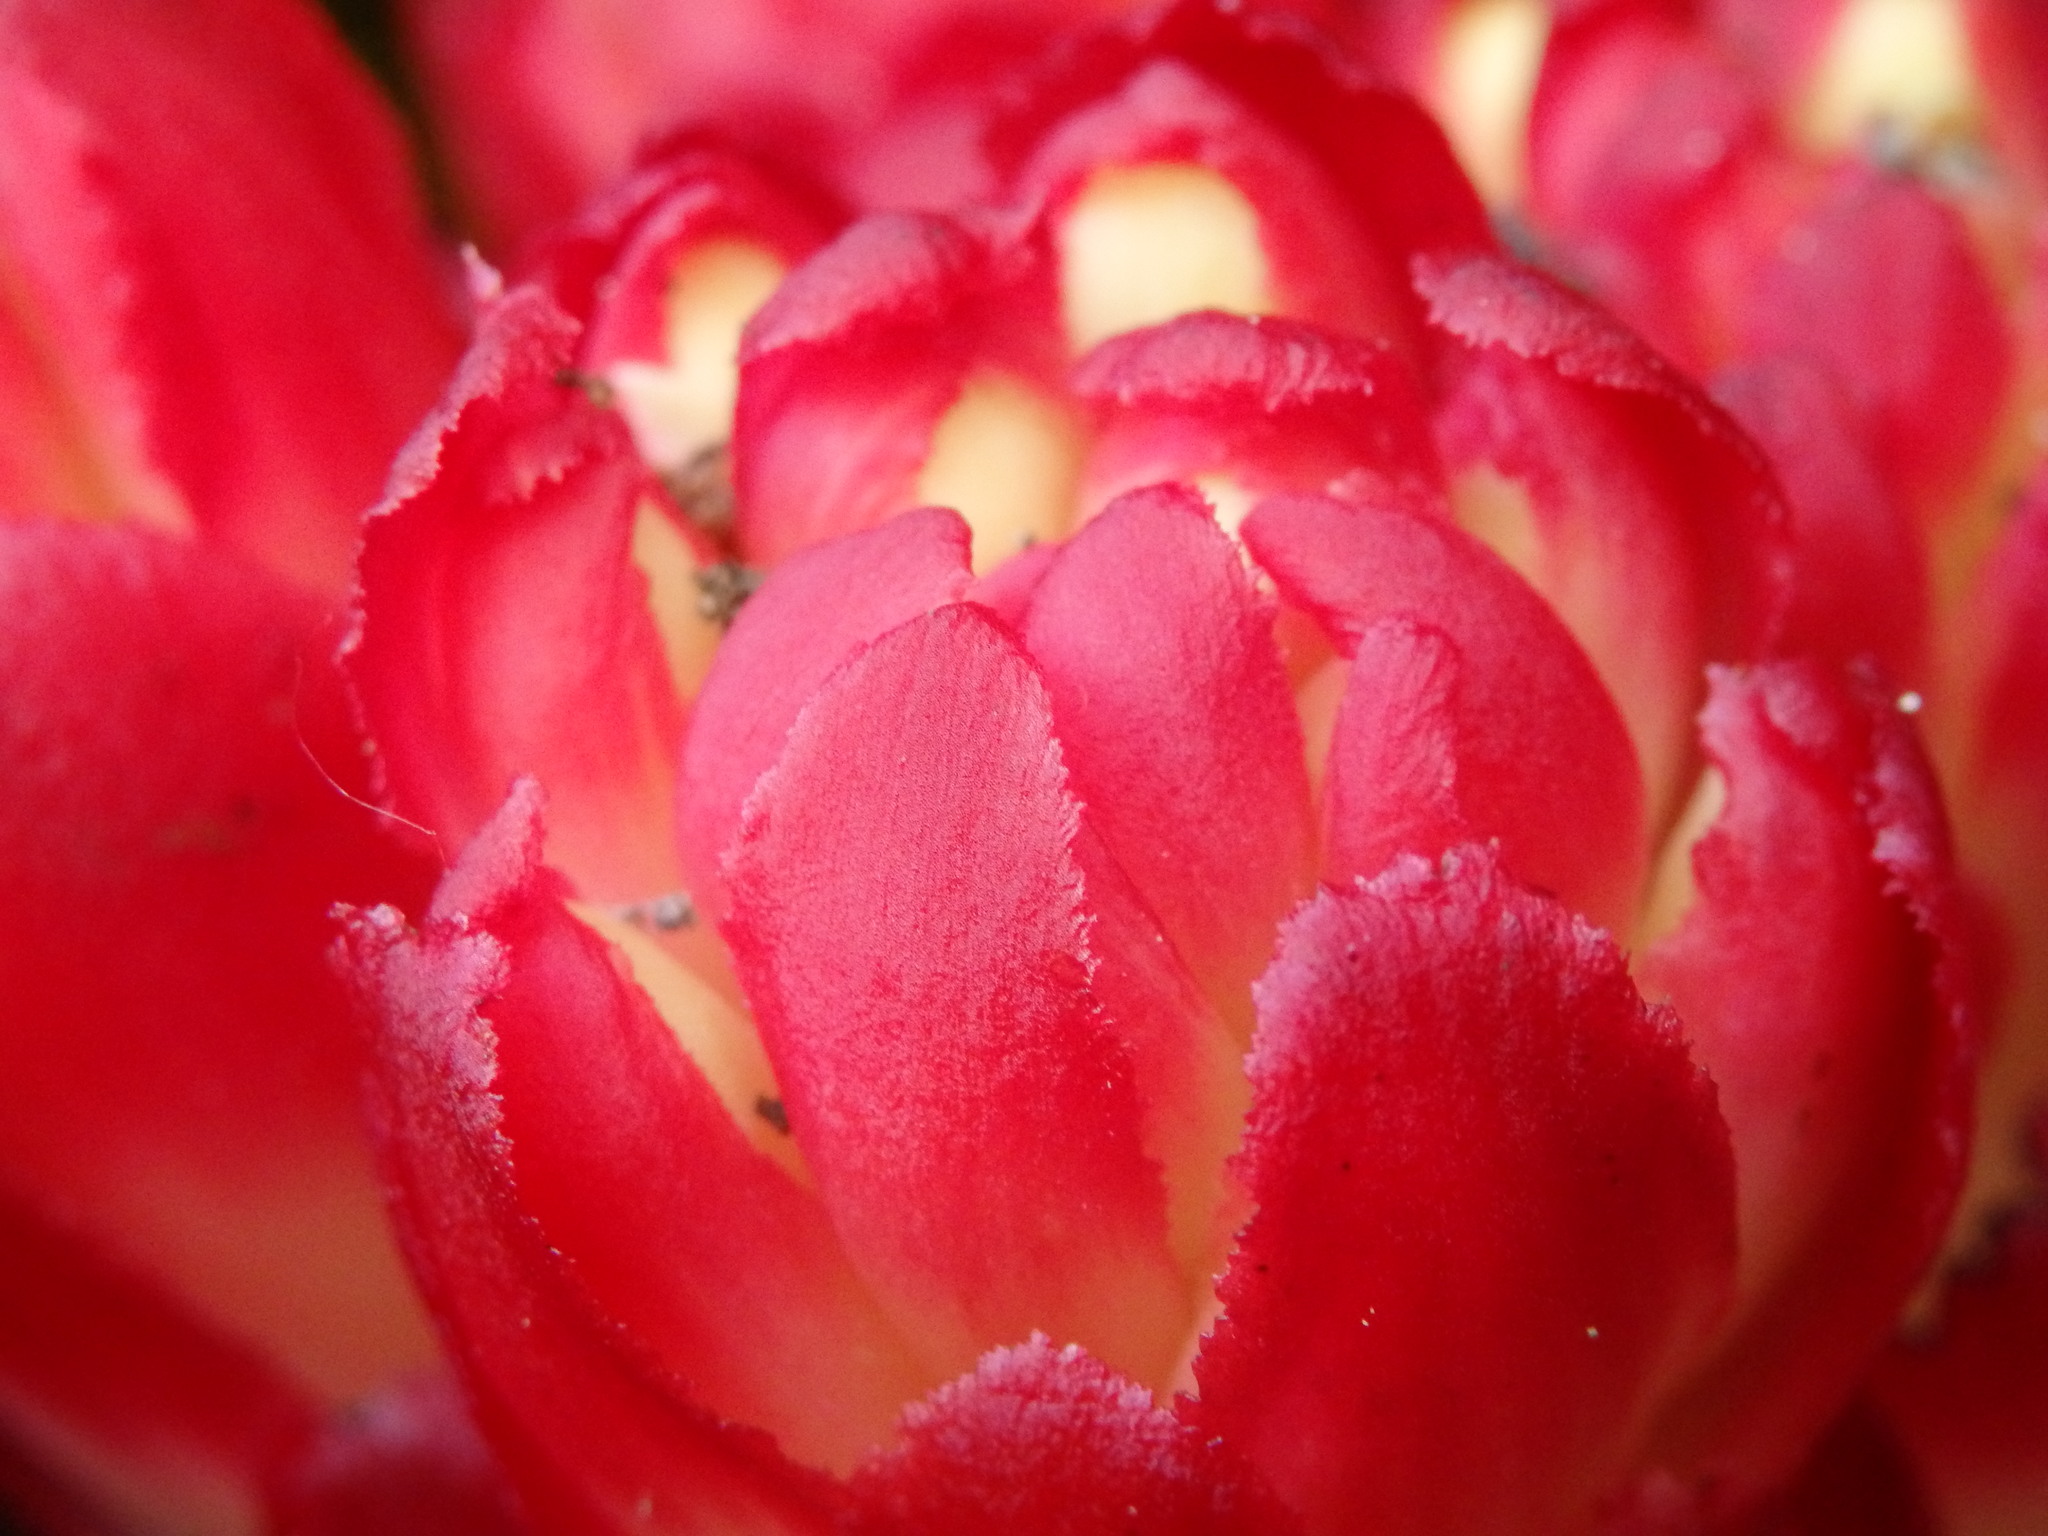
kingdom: Plantae
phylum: Tracheophyta
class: Magnoliopsida
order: Malvales
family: Cytinaceae
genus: Cytinus
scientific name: Cytinus hypocistis
